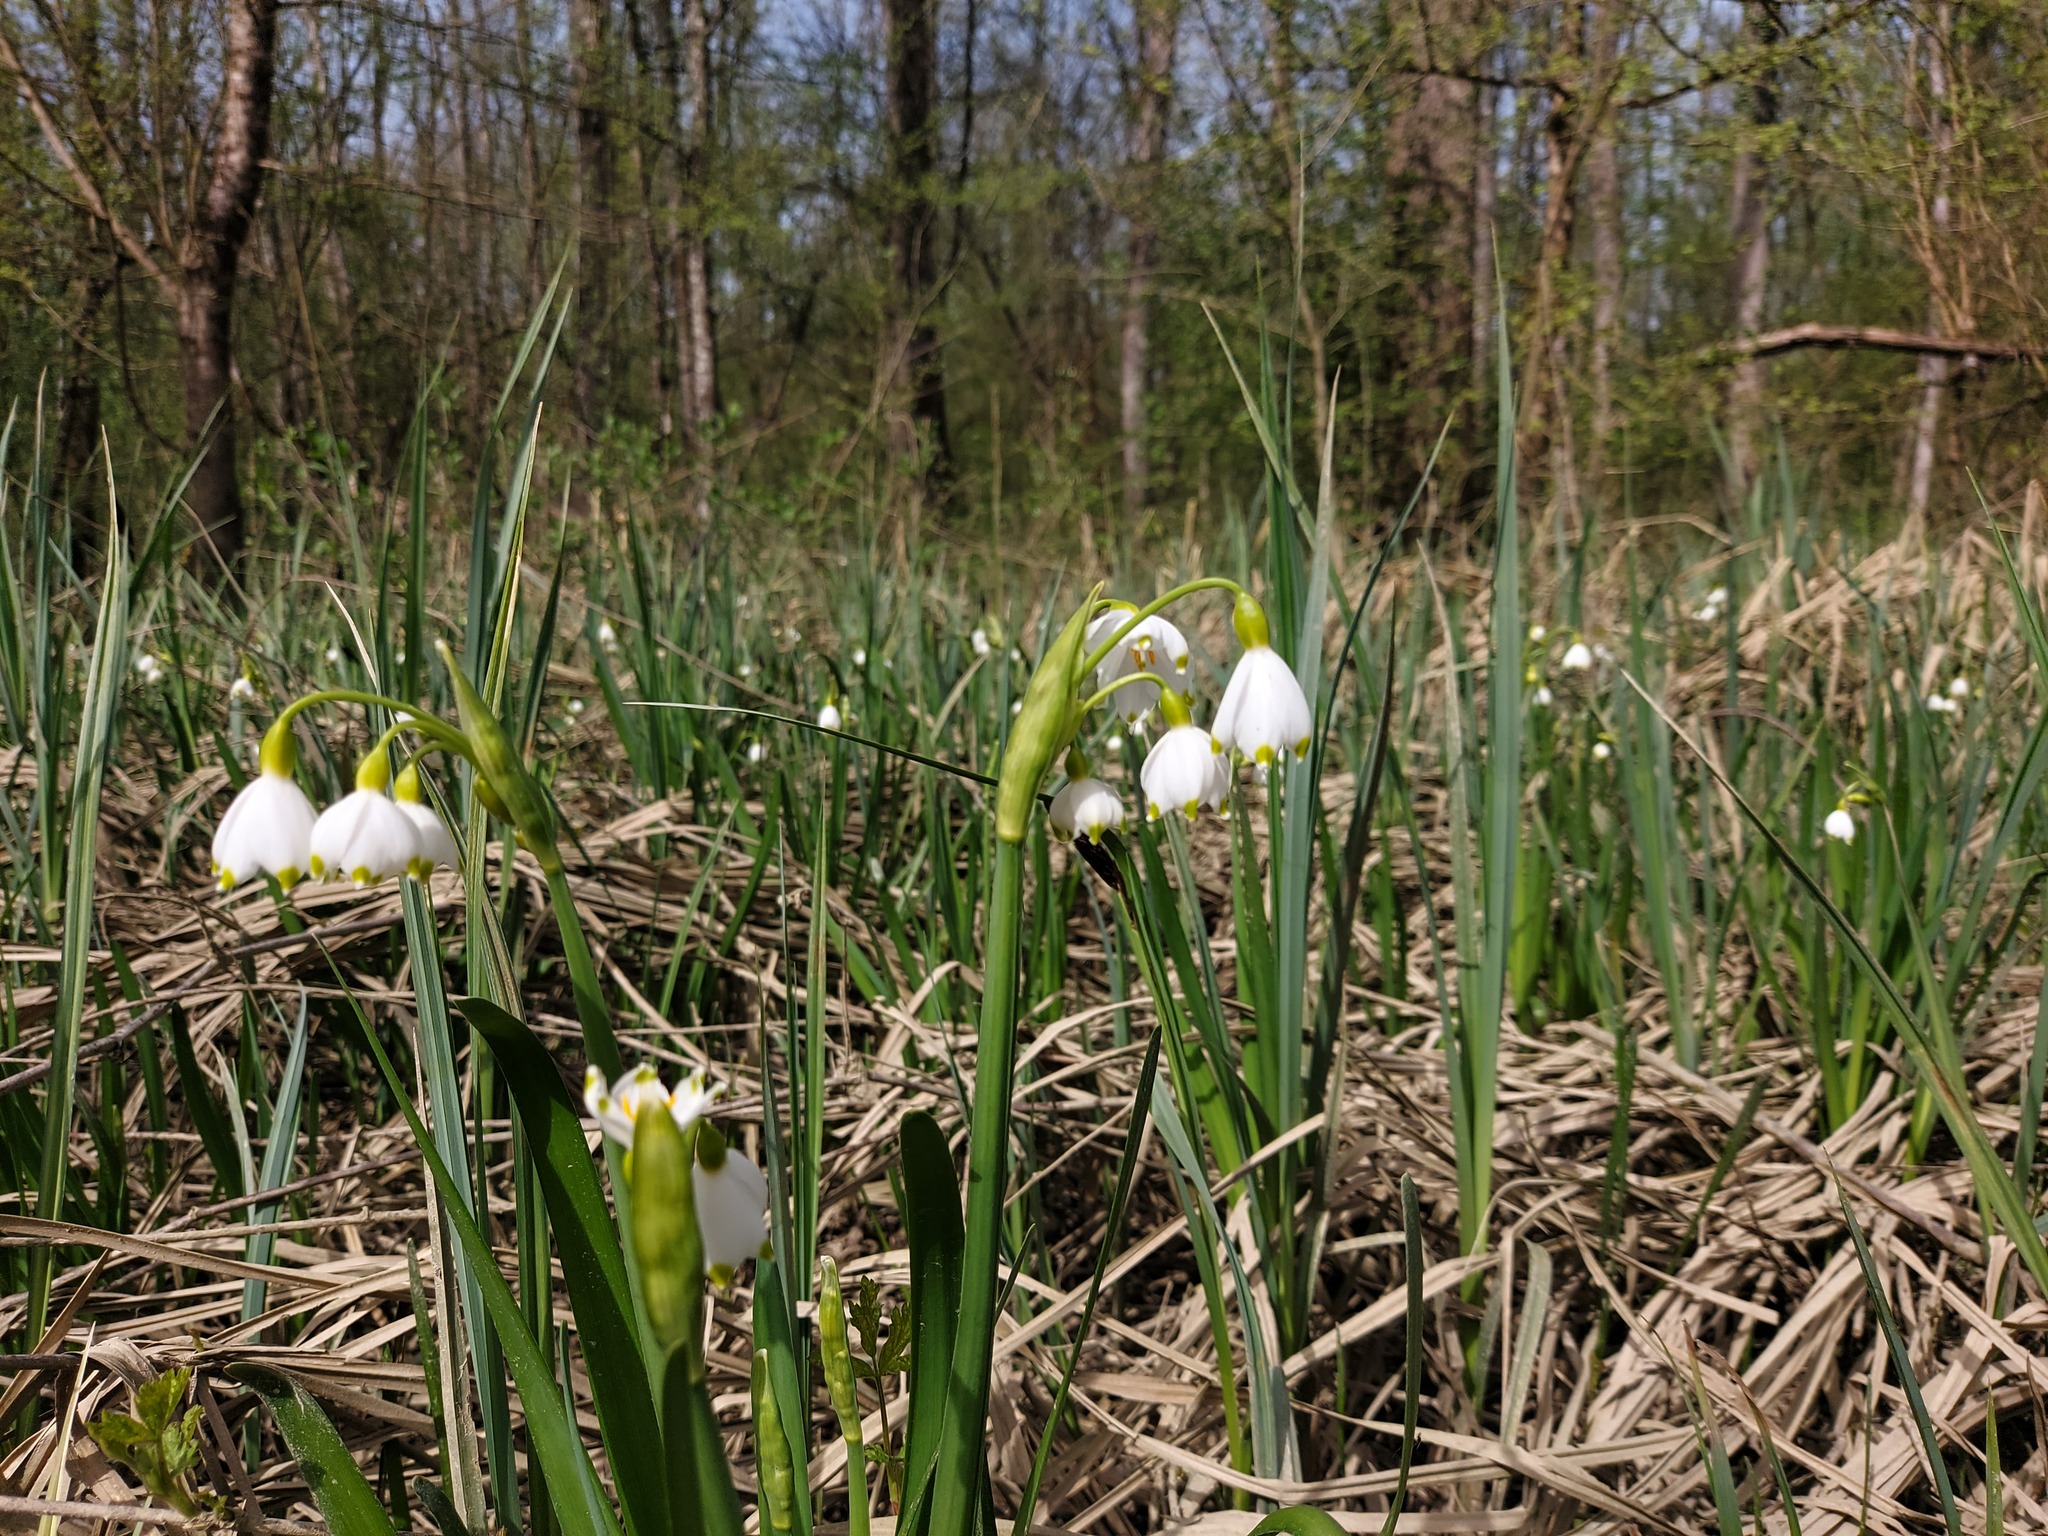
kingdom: Plantae
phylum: Tracheophyta
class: Liliopsida
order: Asparagales
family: Amaryllidaceae
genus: Leucojum
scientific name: Leucojum aestivum
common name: Summer snowflake
